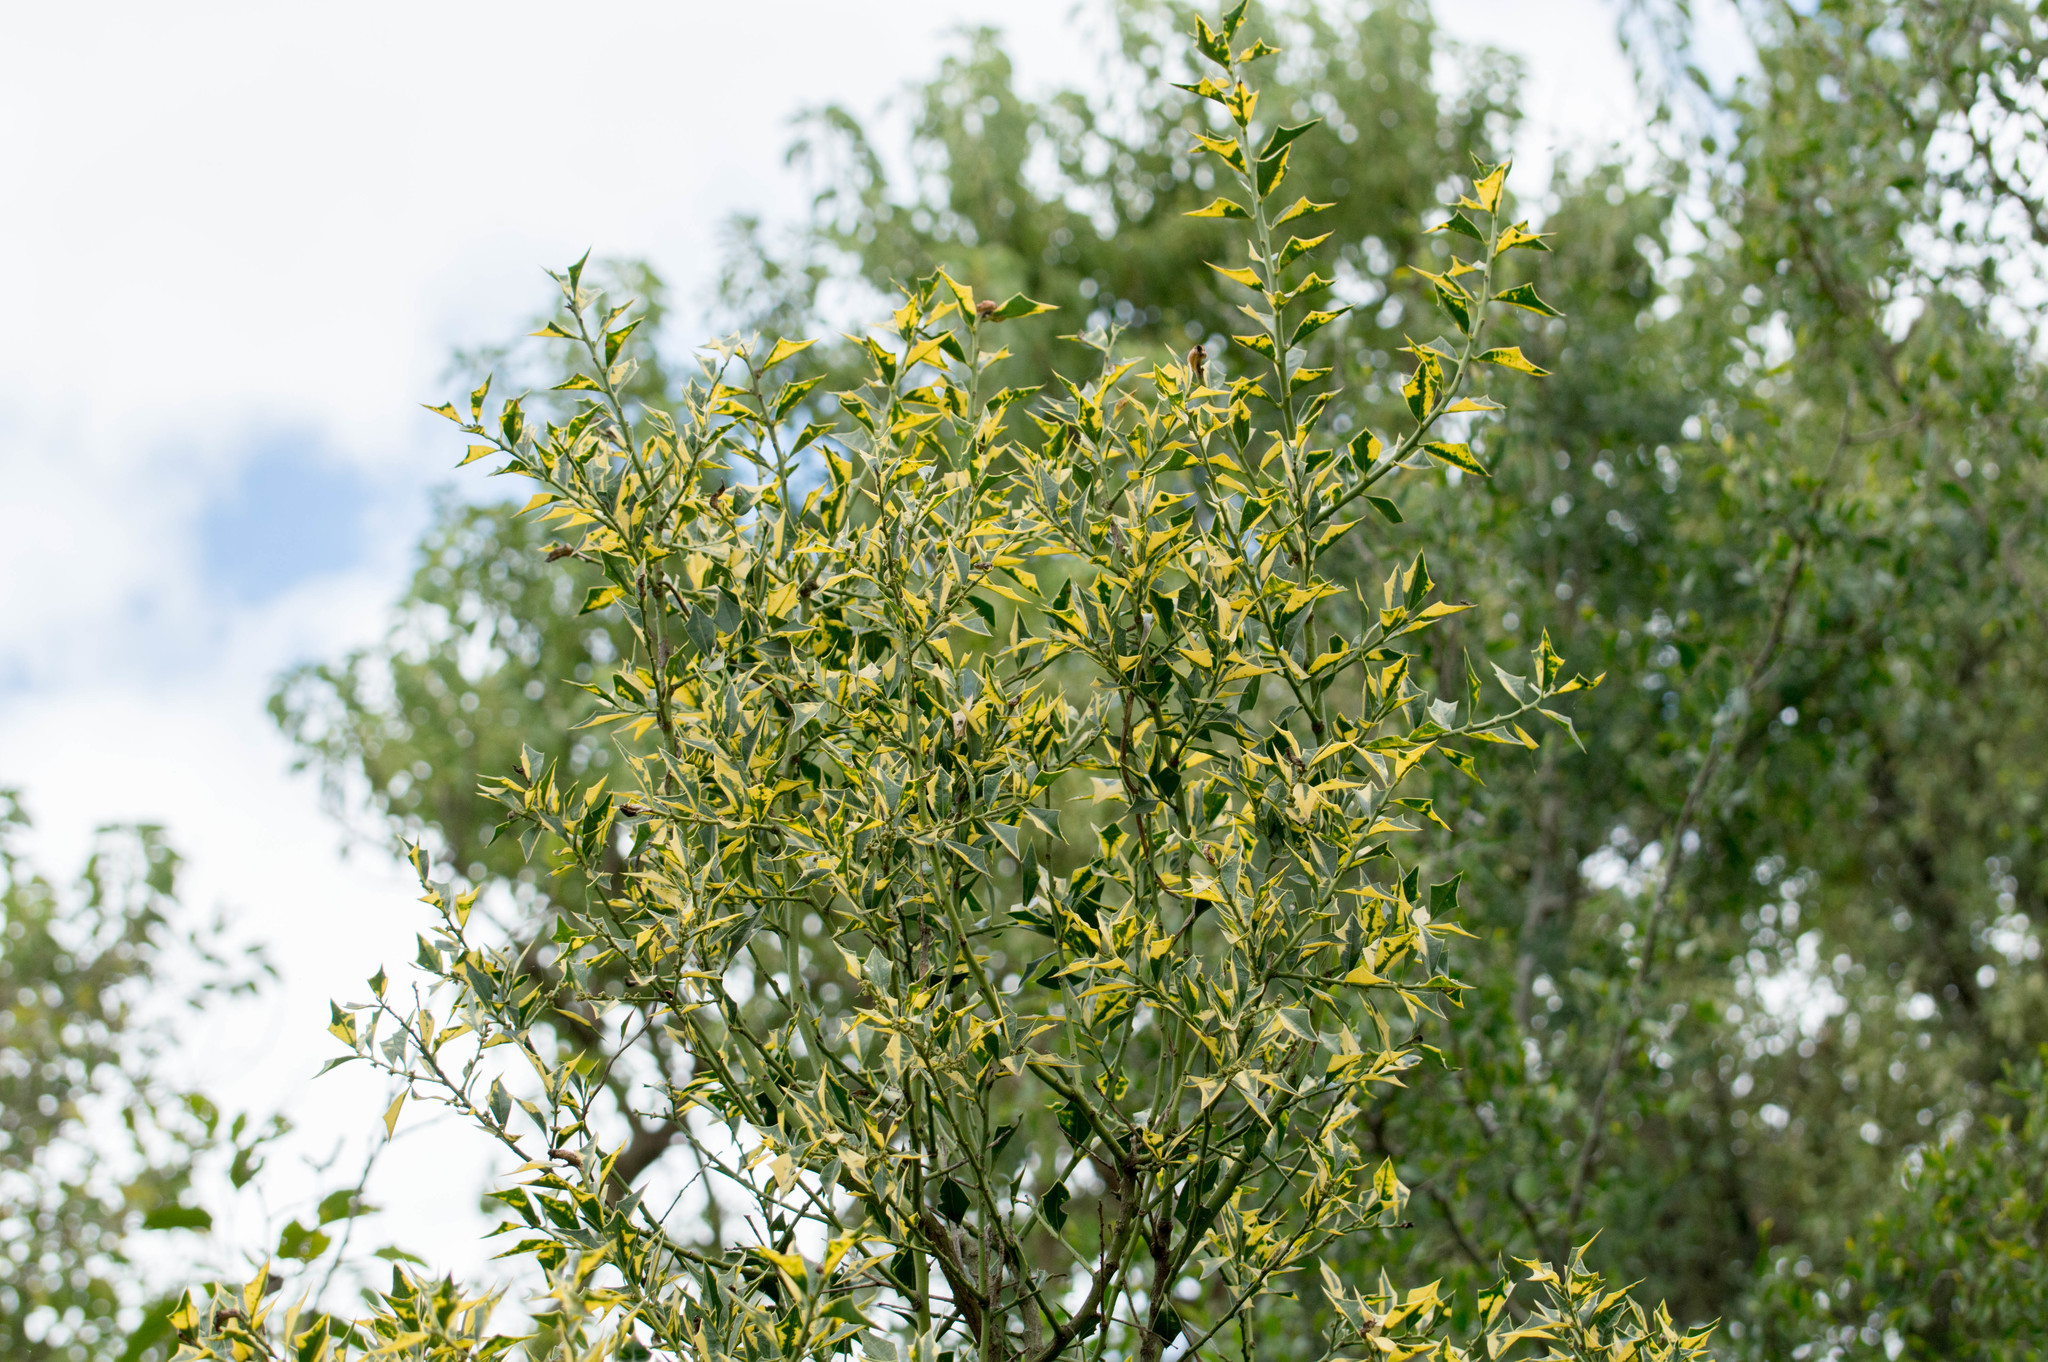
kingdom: Plantae
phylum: Tracheophyta
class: Magnoliopsida
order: Santalales
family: Cervantesiaceae
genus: Jodina
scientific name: Jodina rhombifolia
